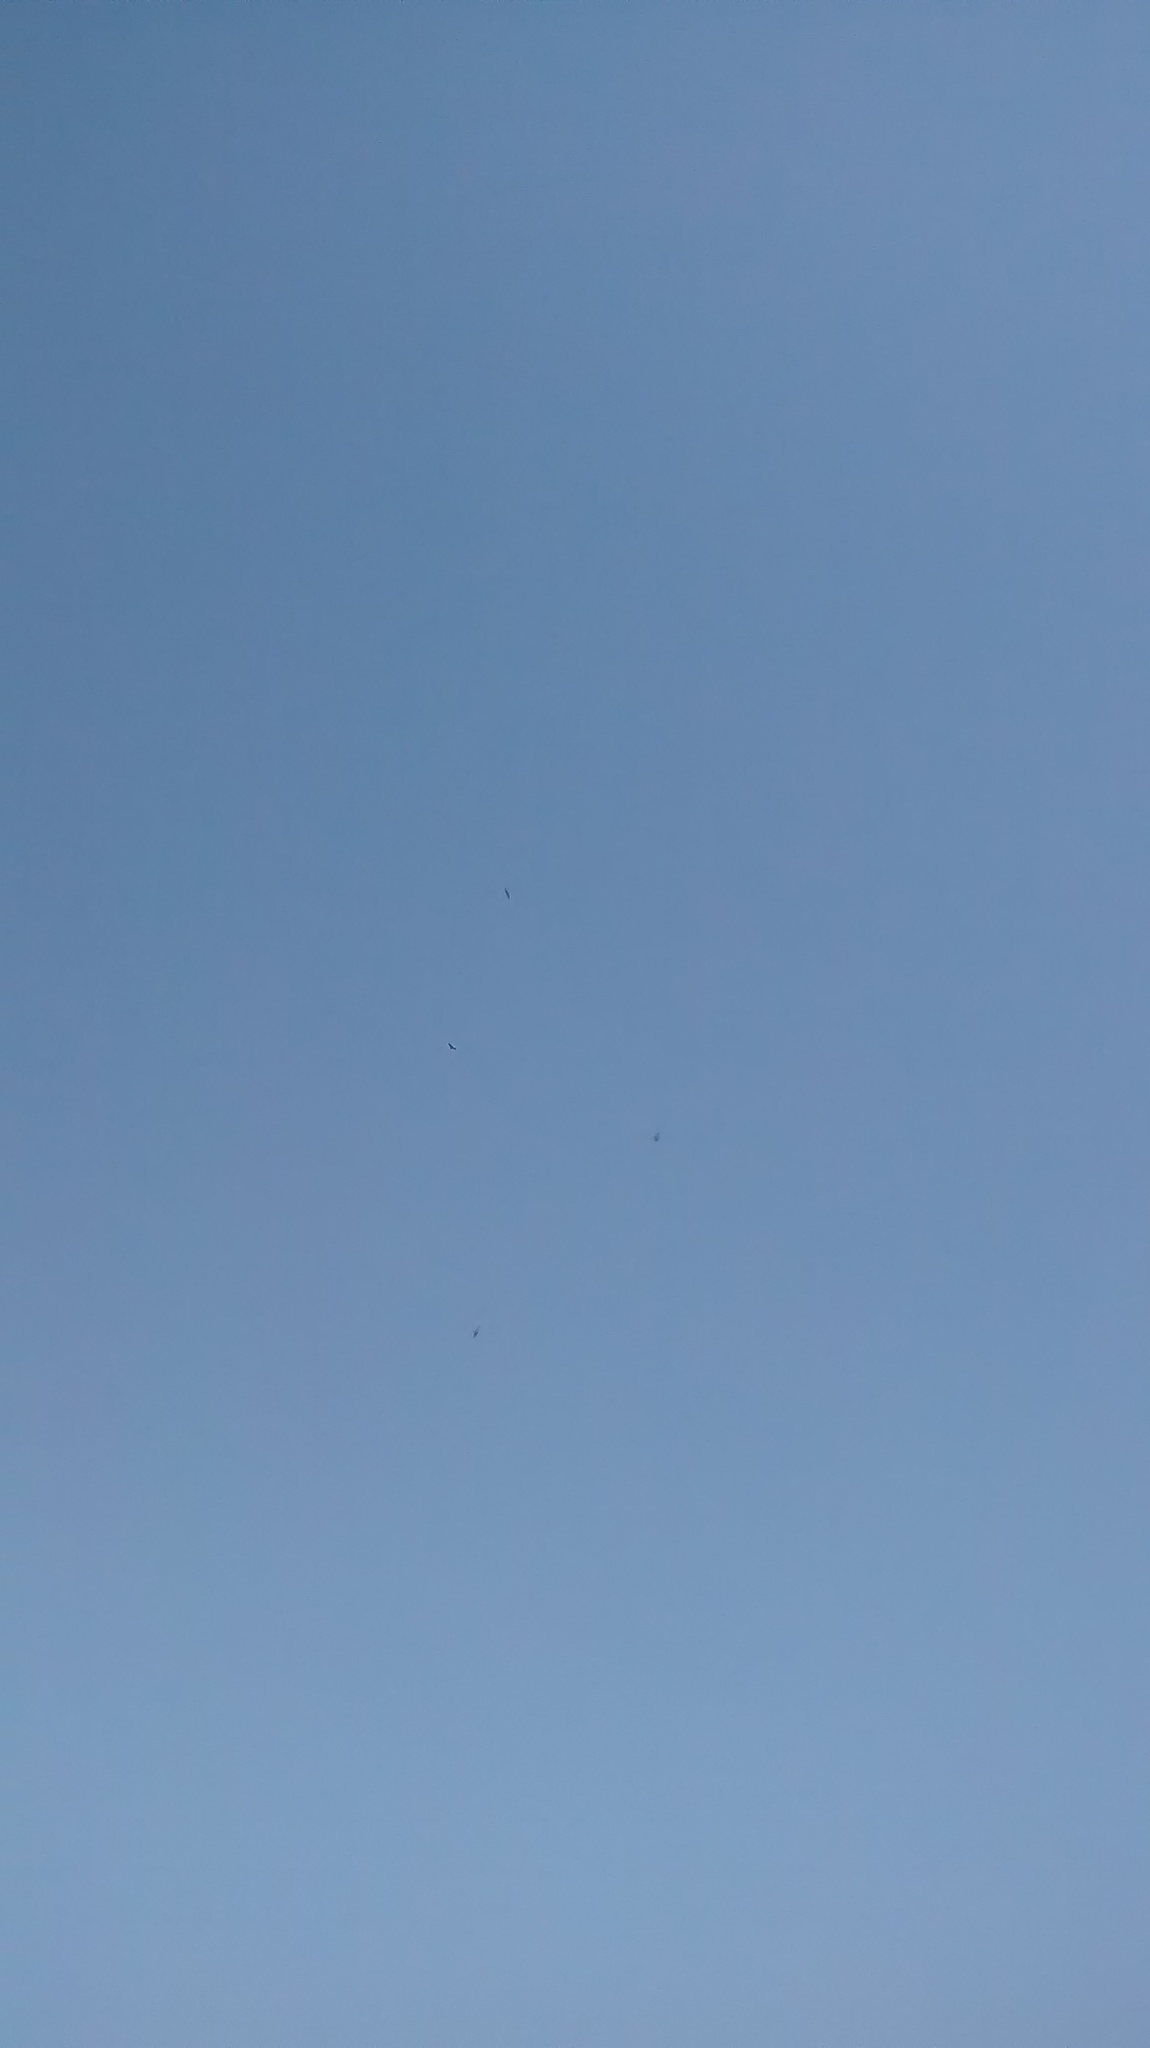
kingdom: Animalia
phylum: Chordata
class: Aves
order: Accipitriformes
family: Accipitridae
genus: Buteo
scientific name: Buteo buteo
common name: Common buzzard
